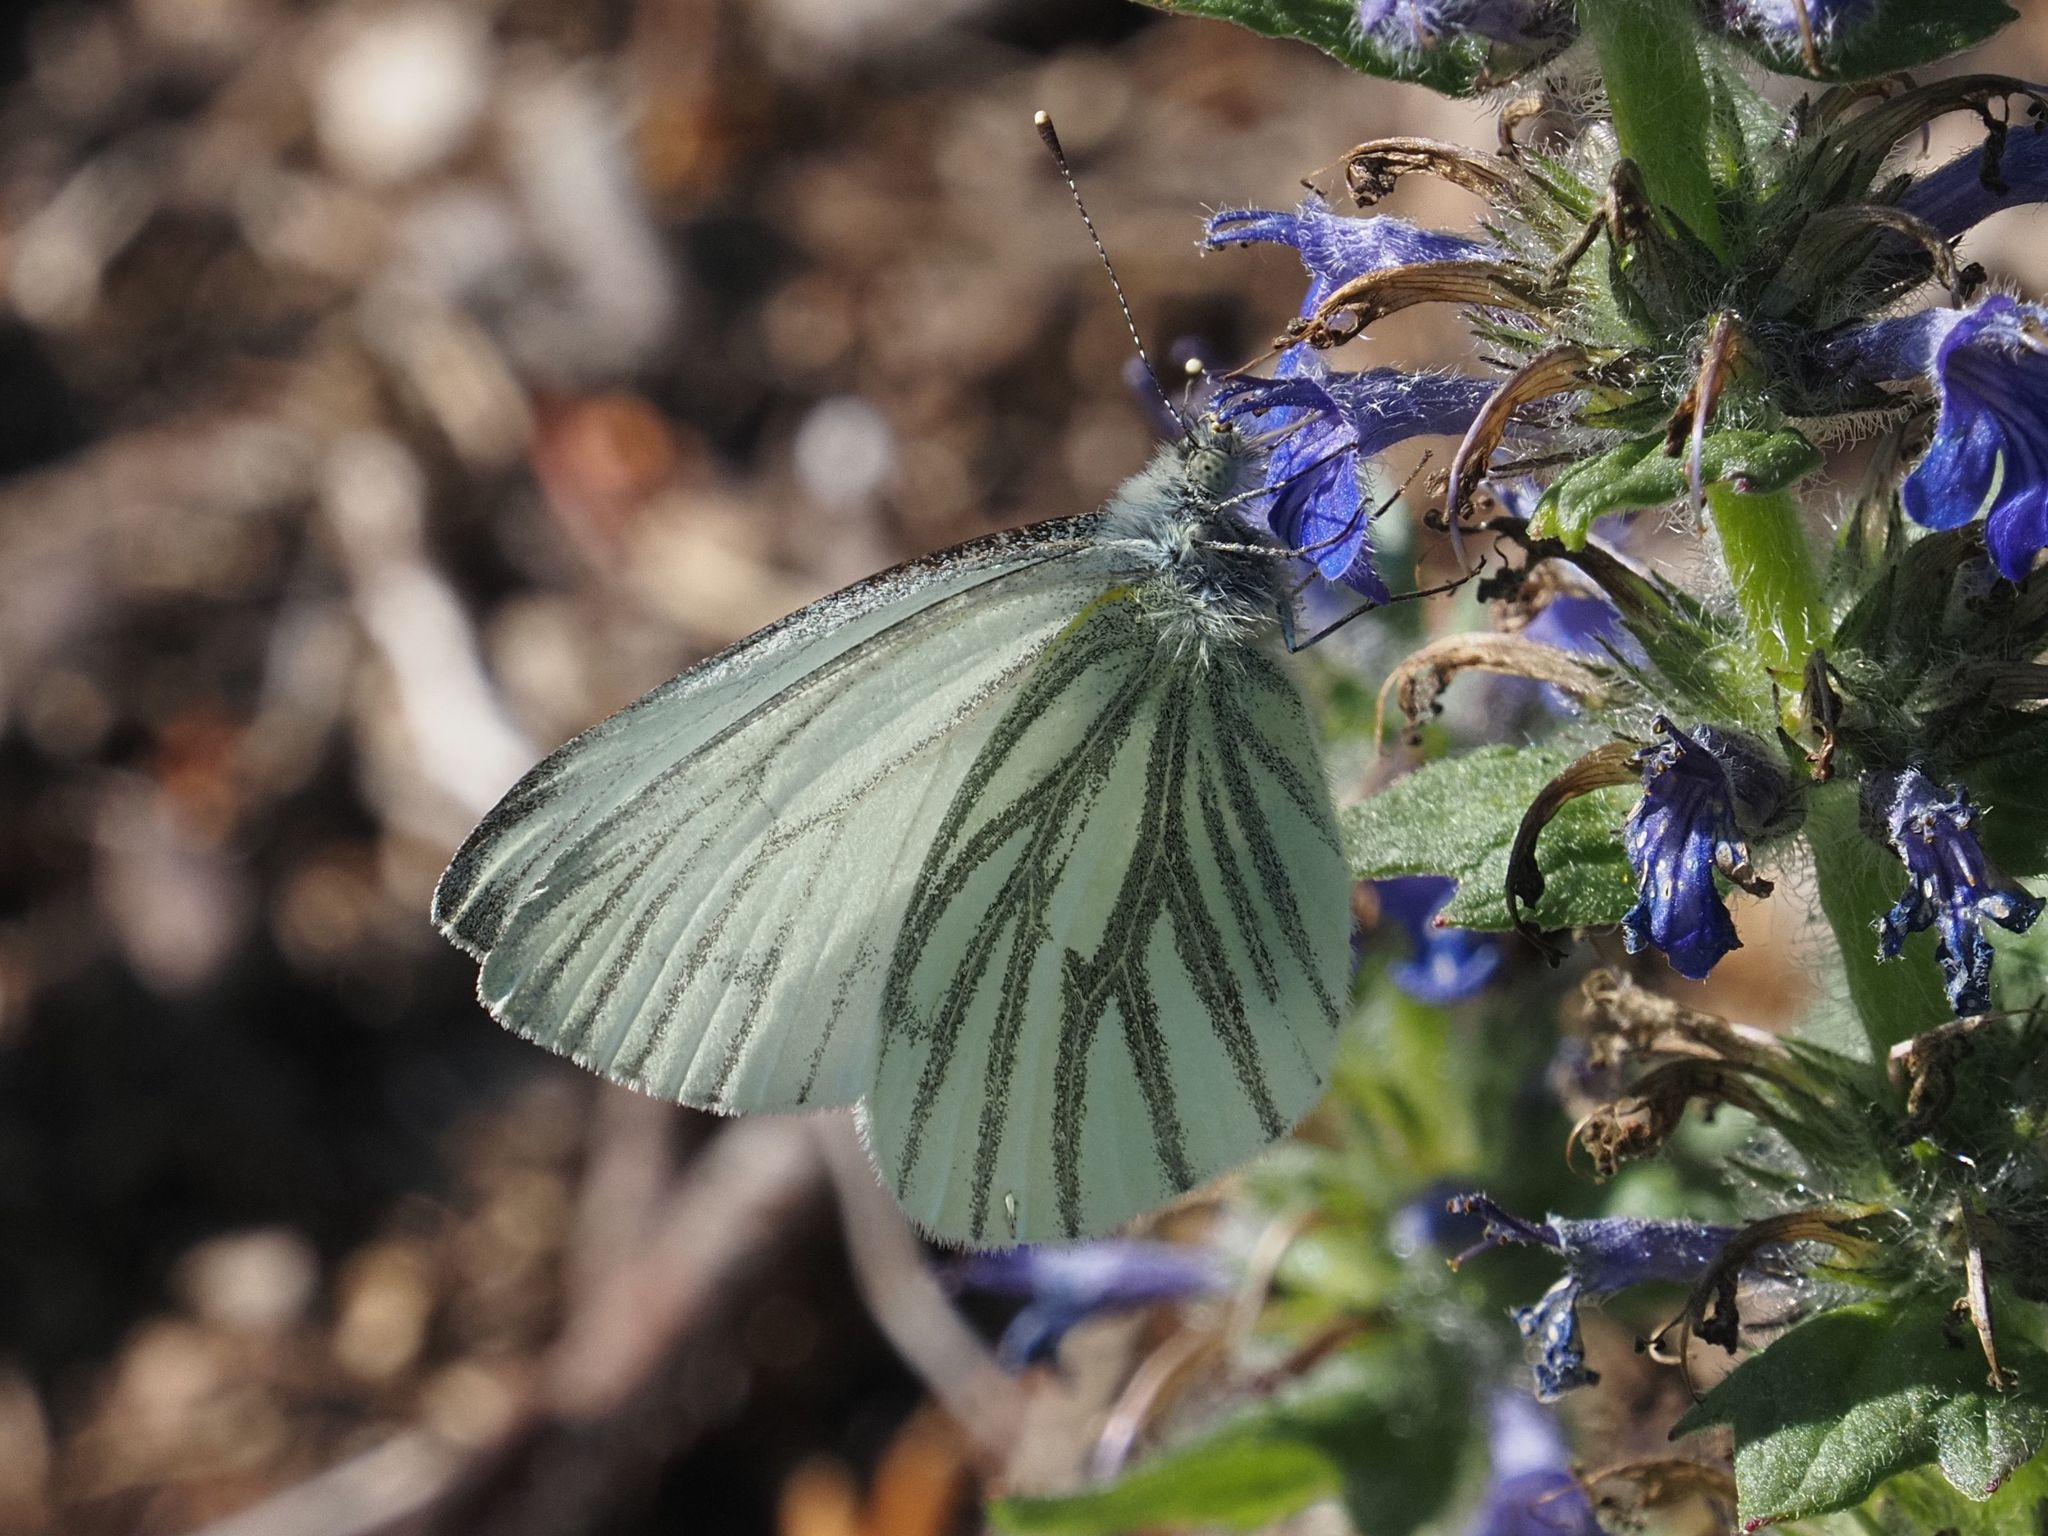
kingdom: Animalia
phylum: Arthropoda
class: Insecta
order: Lepidoptera
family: Pieridae
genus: Pieris
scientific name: Pieris napi
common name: Green-veined white
